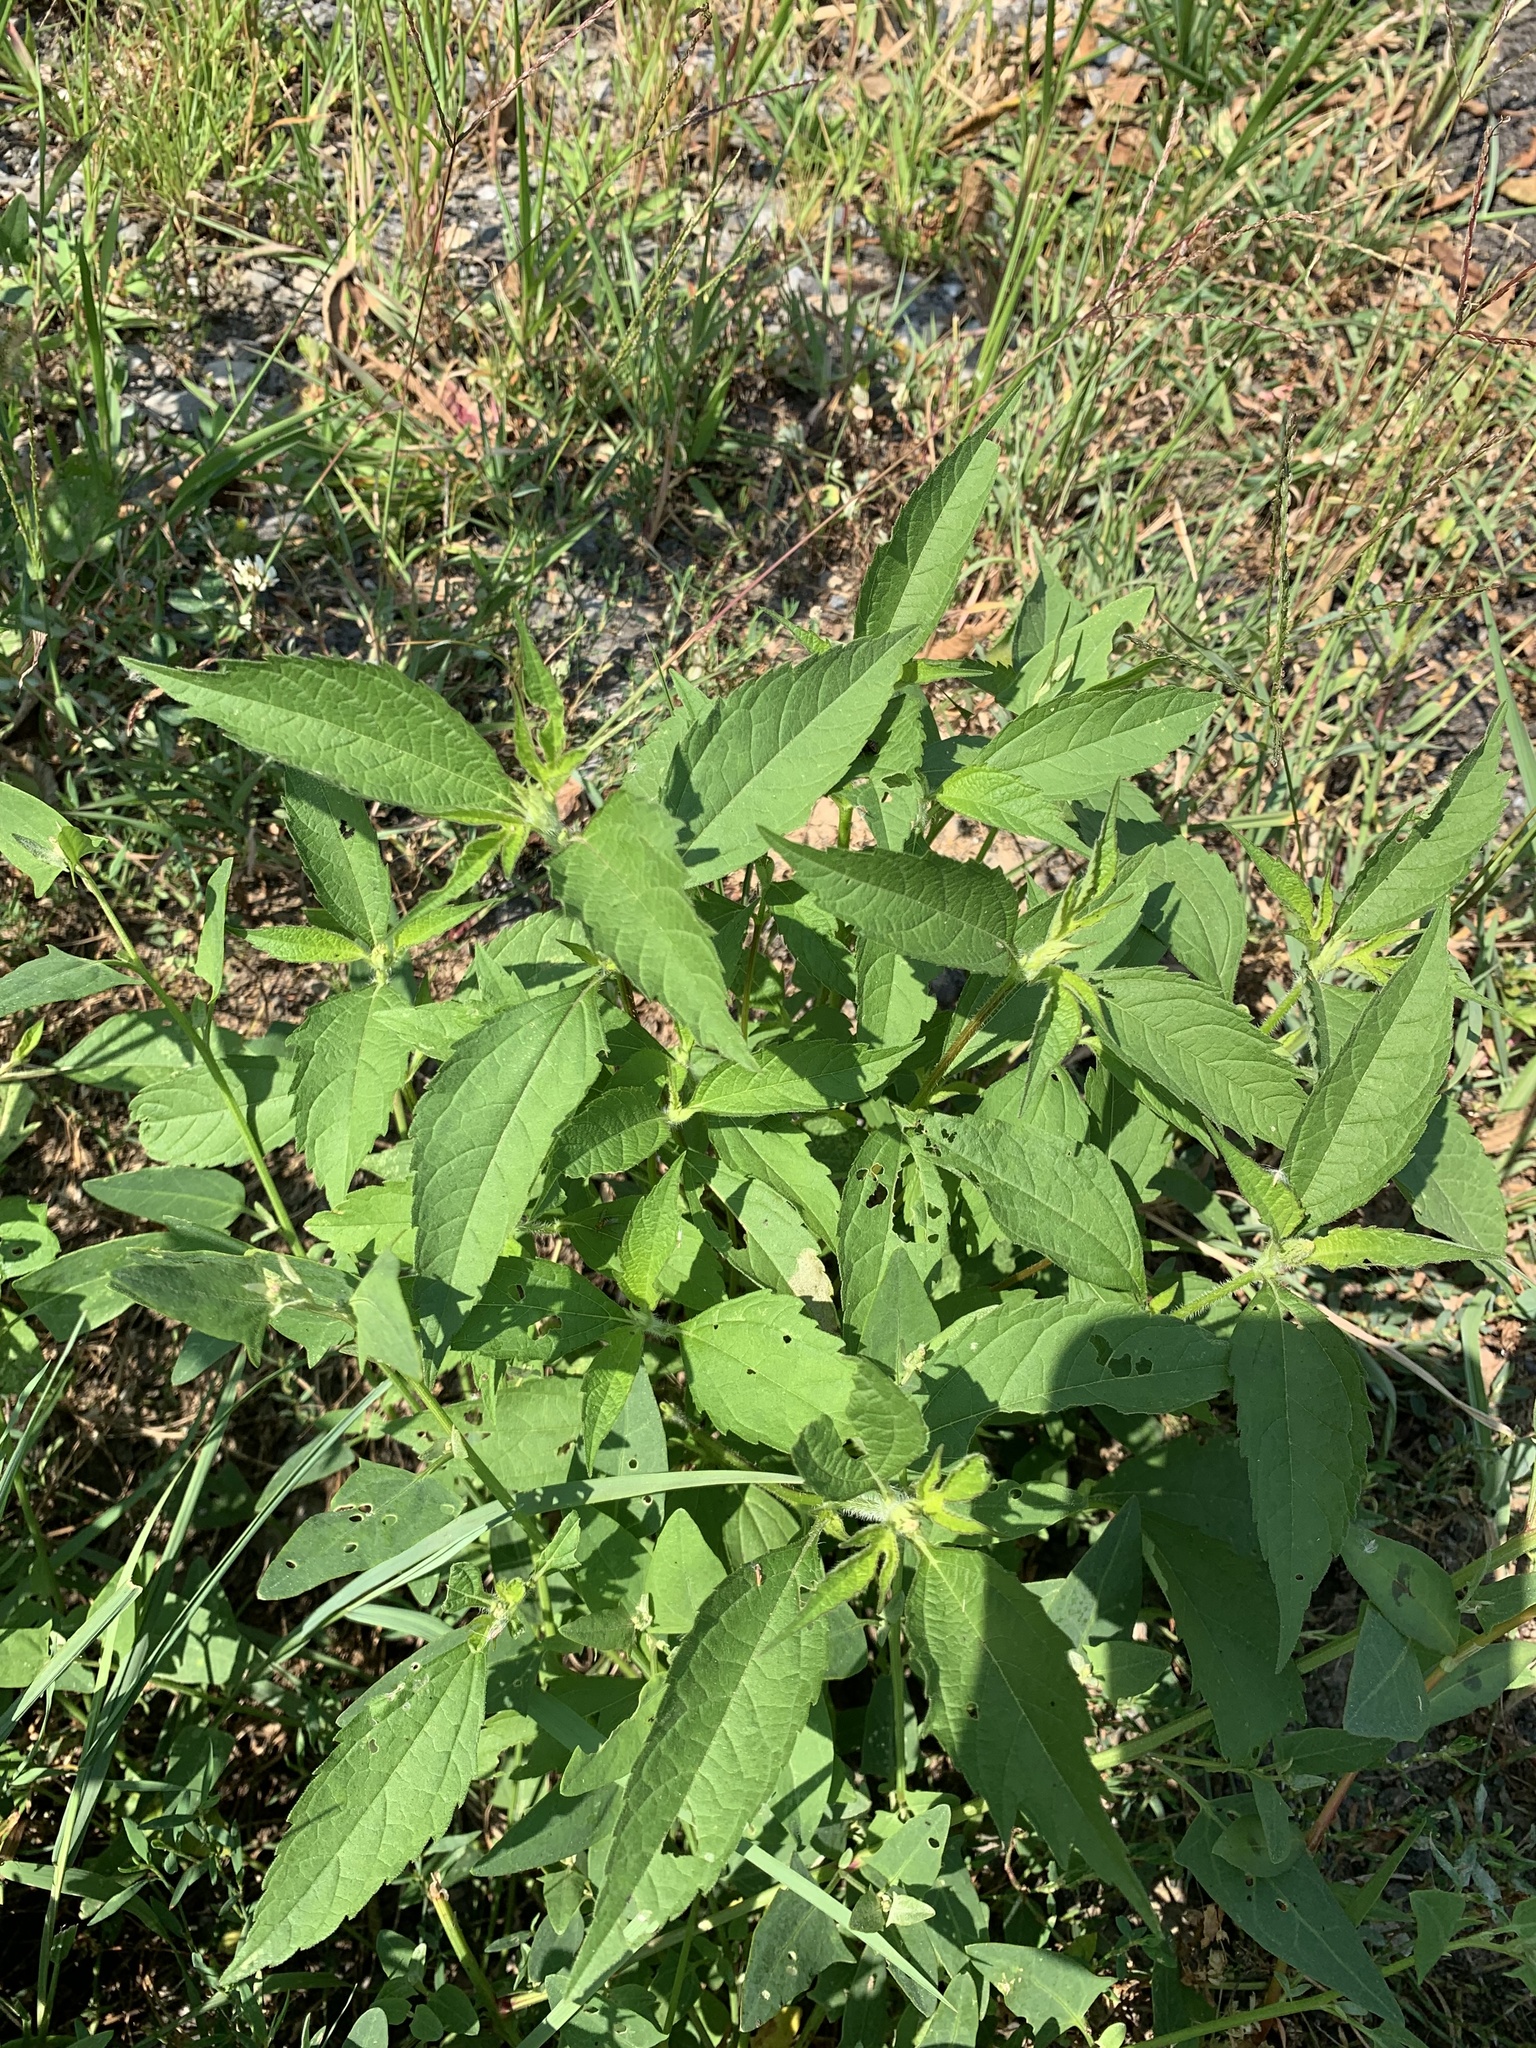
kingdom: Plantae
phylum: Tracheophyta
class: Magnoliopsida
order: Asterales
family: Asteraceae
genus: Ambrosia
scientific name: Ambrosia trifida
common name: Giant ragweed
